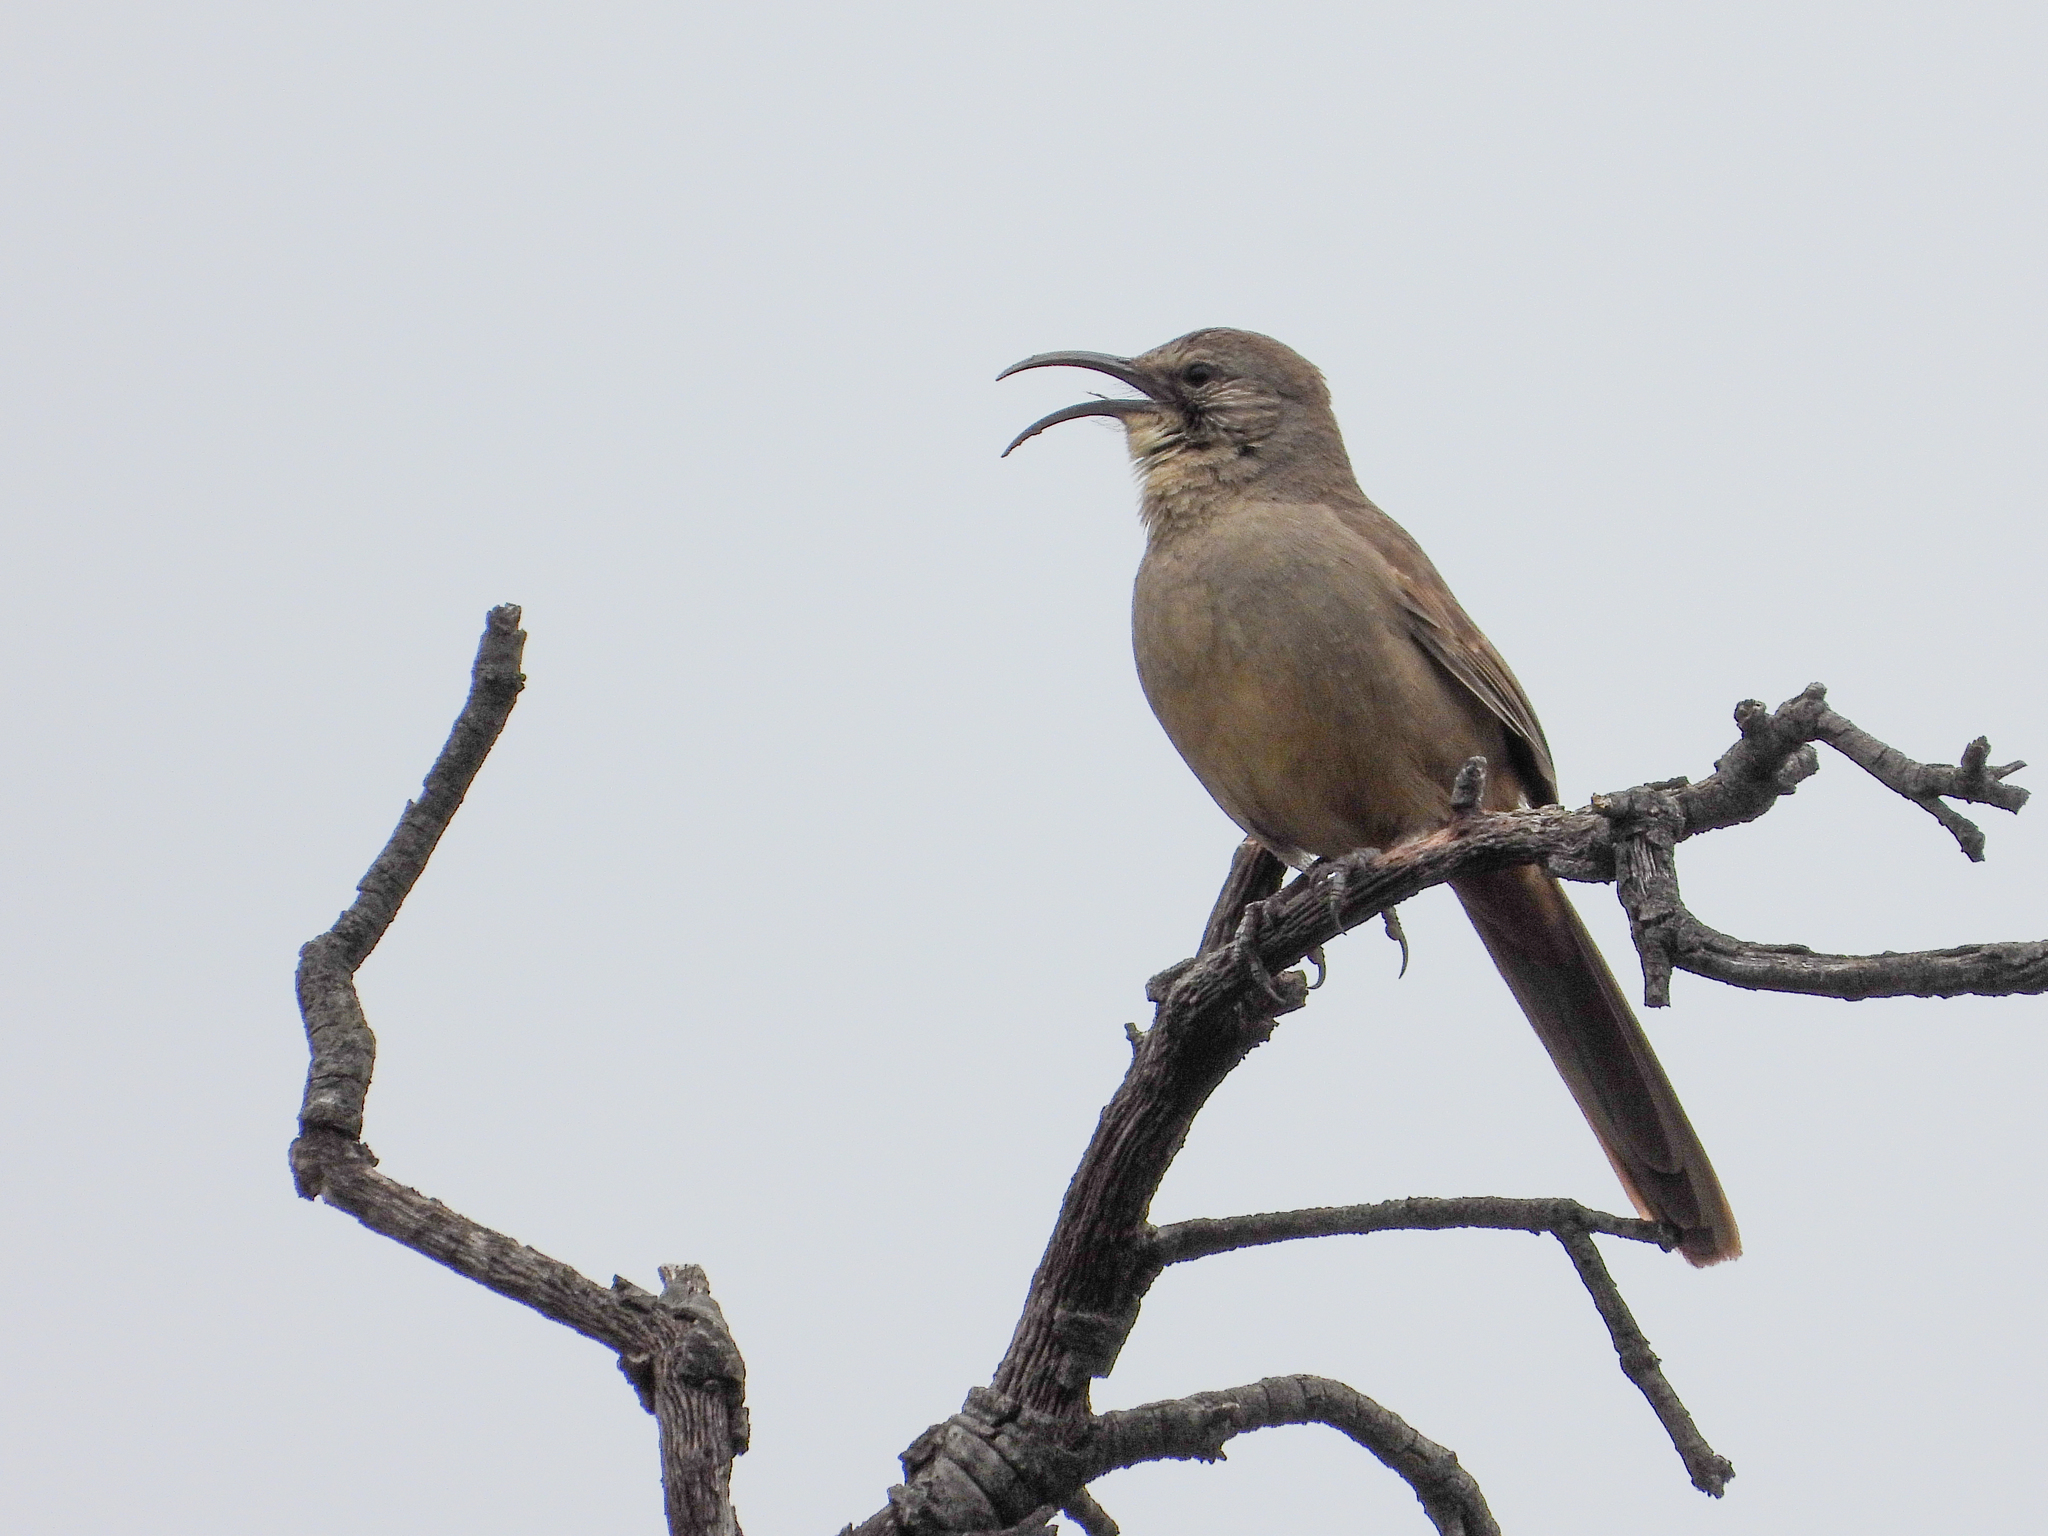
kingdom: Animalia
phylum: Chordata
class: Aves
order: Passeriformes
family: Mimidae
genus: Toxostoma
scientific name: Toxostoma redivivum
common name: California thrasher
